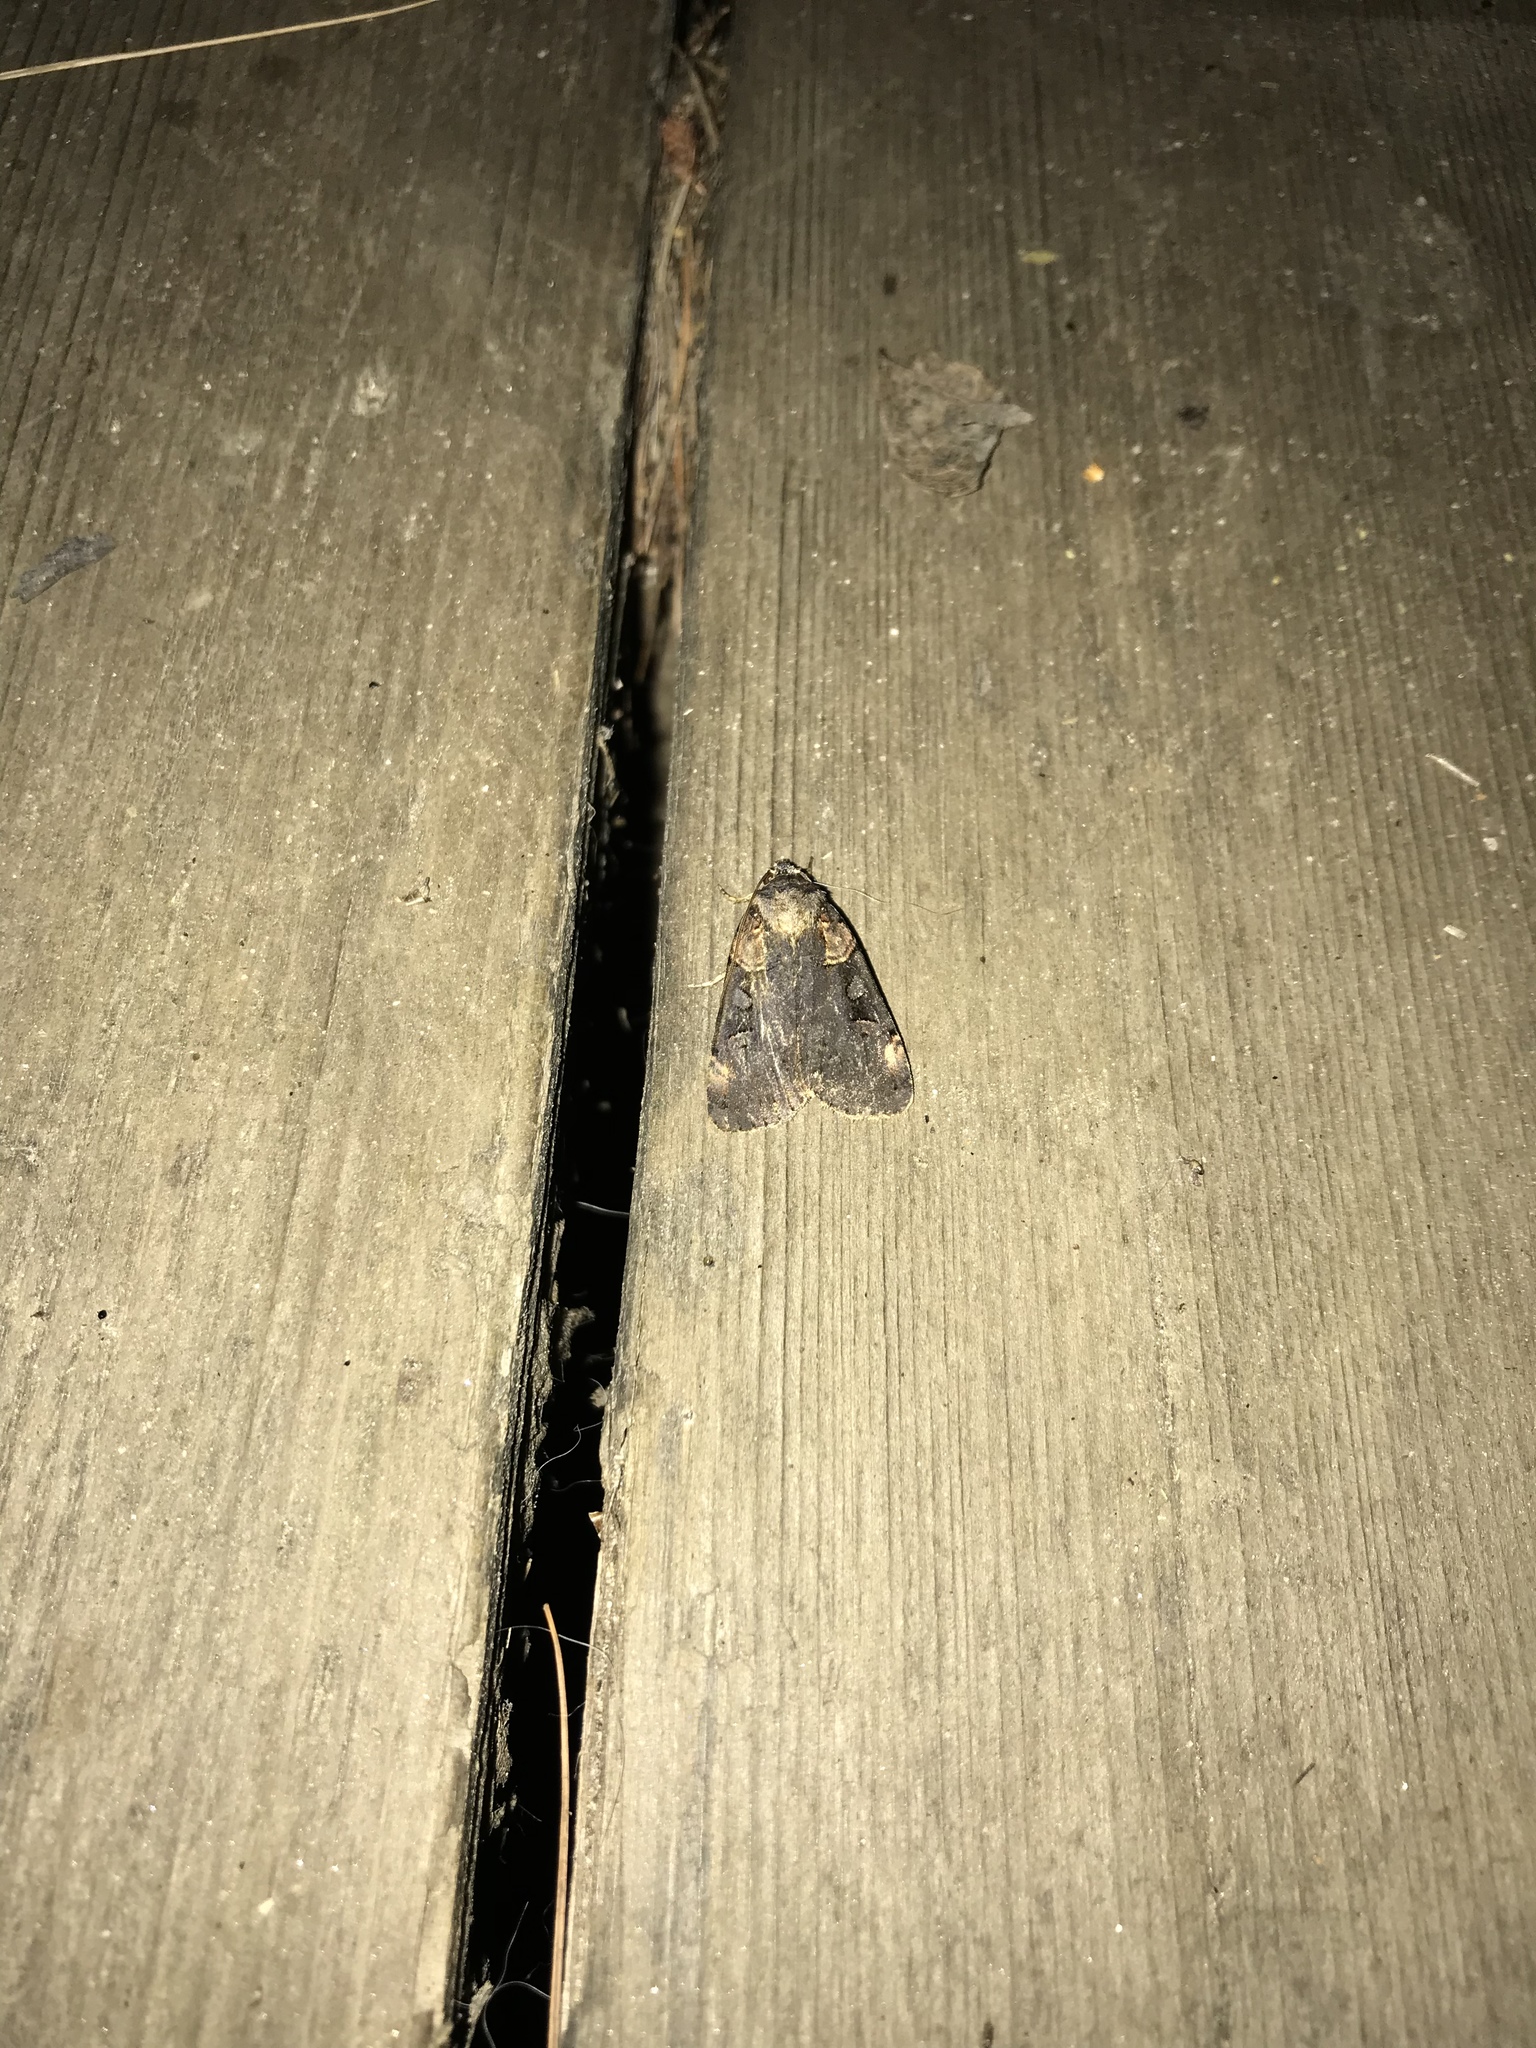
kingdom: Animalia
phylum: Arthropoda
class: Insecta
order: Lepidoptera
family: Noctuidae
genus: Pseudohermonassa
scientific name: Pseudohermonassa bicarnea
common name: Pink spotted dart
